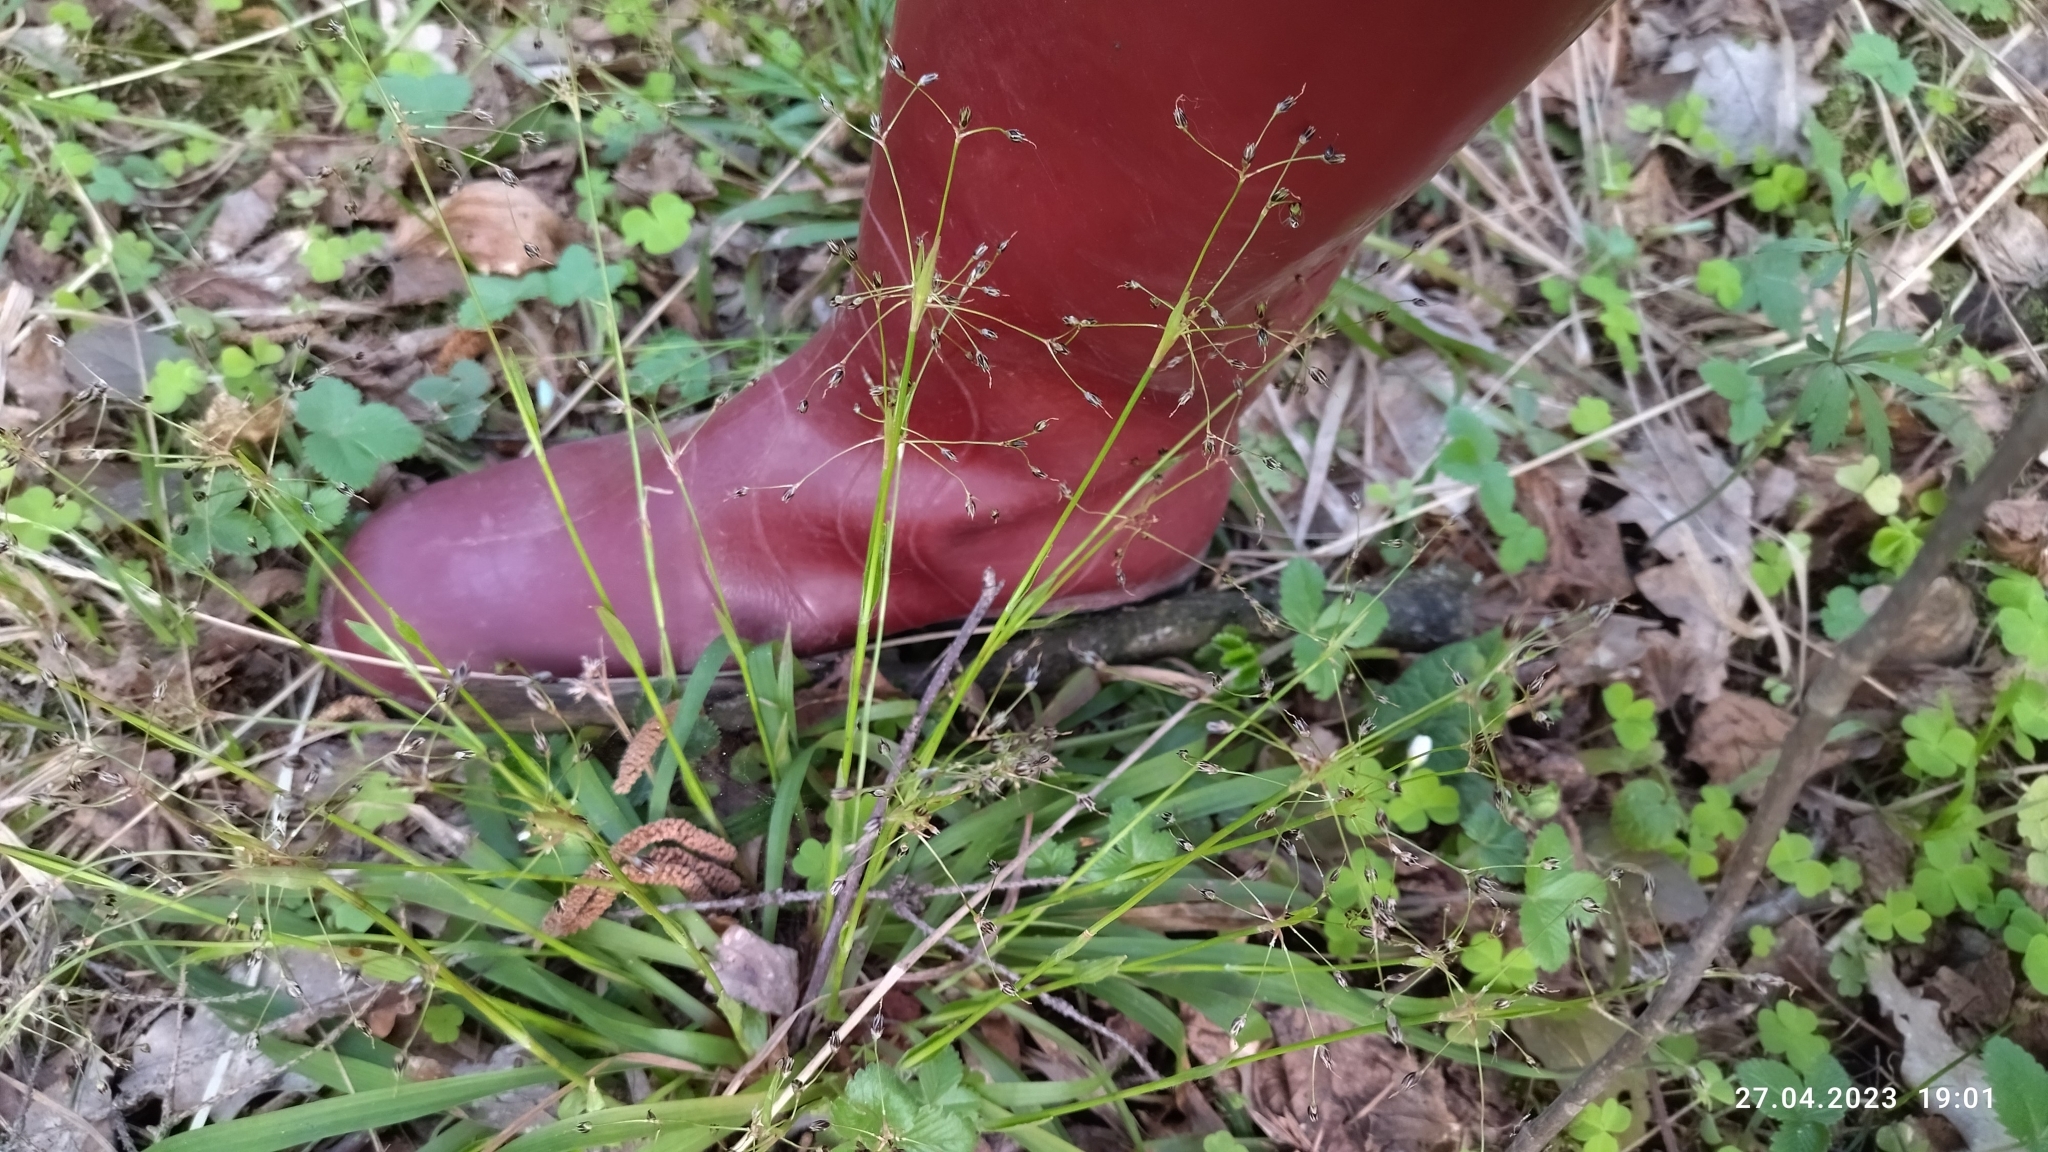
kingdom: Plantae
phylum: Tracheophyta
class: Liliopsida
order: Poales
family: Juncaceae
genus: Luzula
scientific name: Luzula pilosa
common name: Hairy wood-rush
